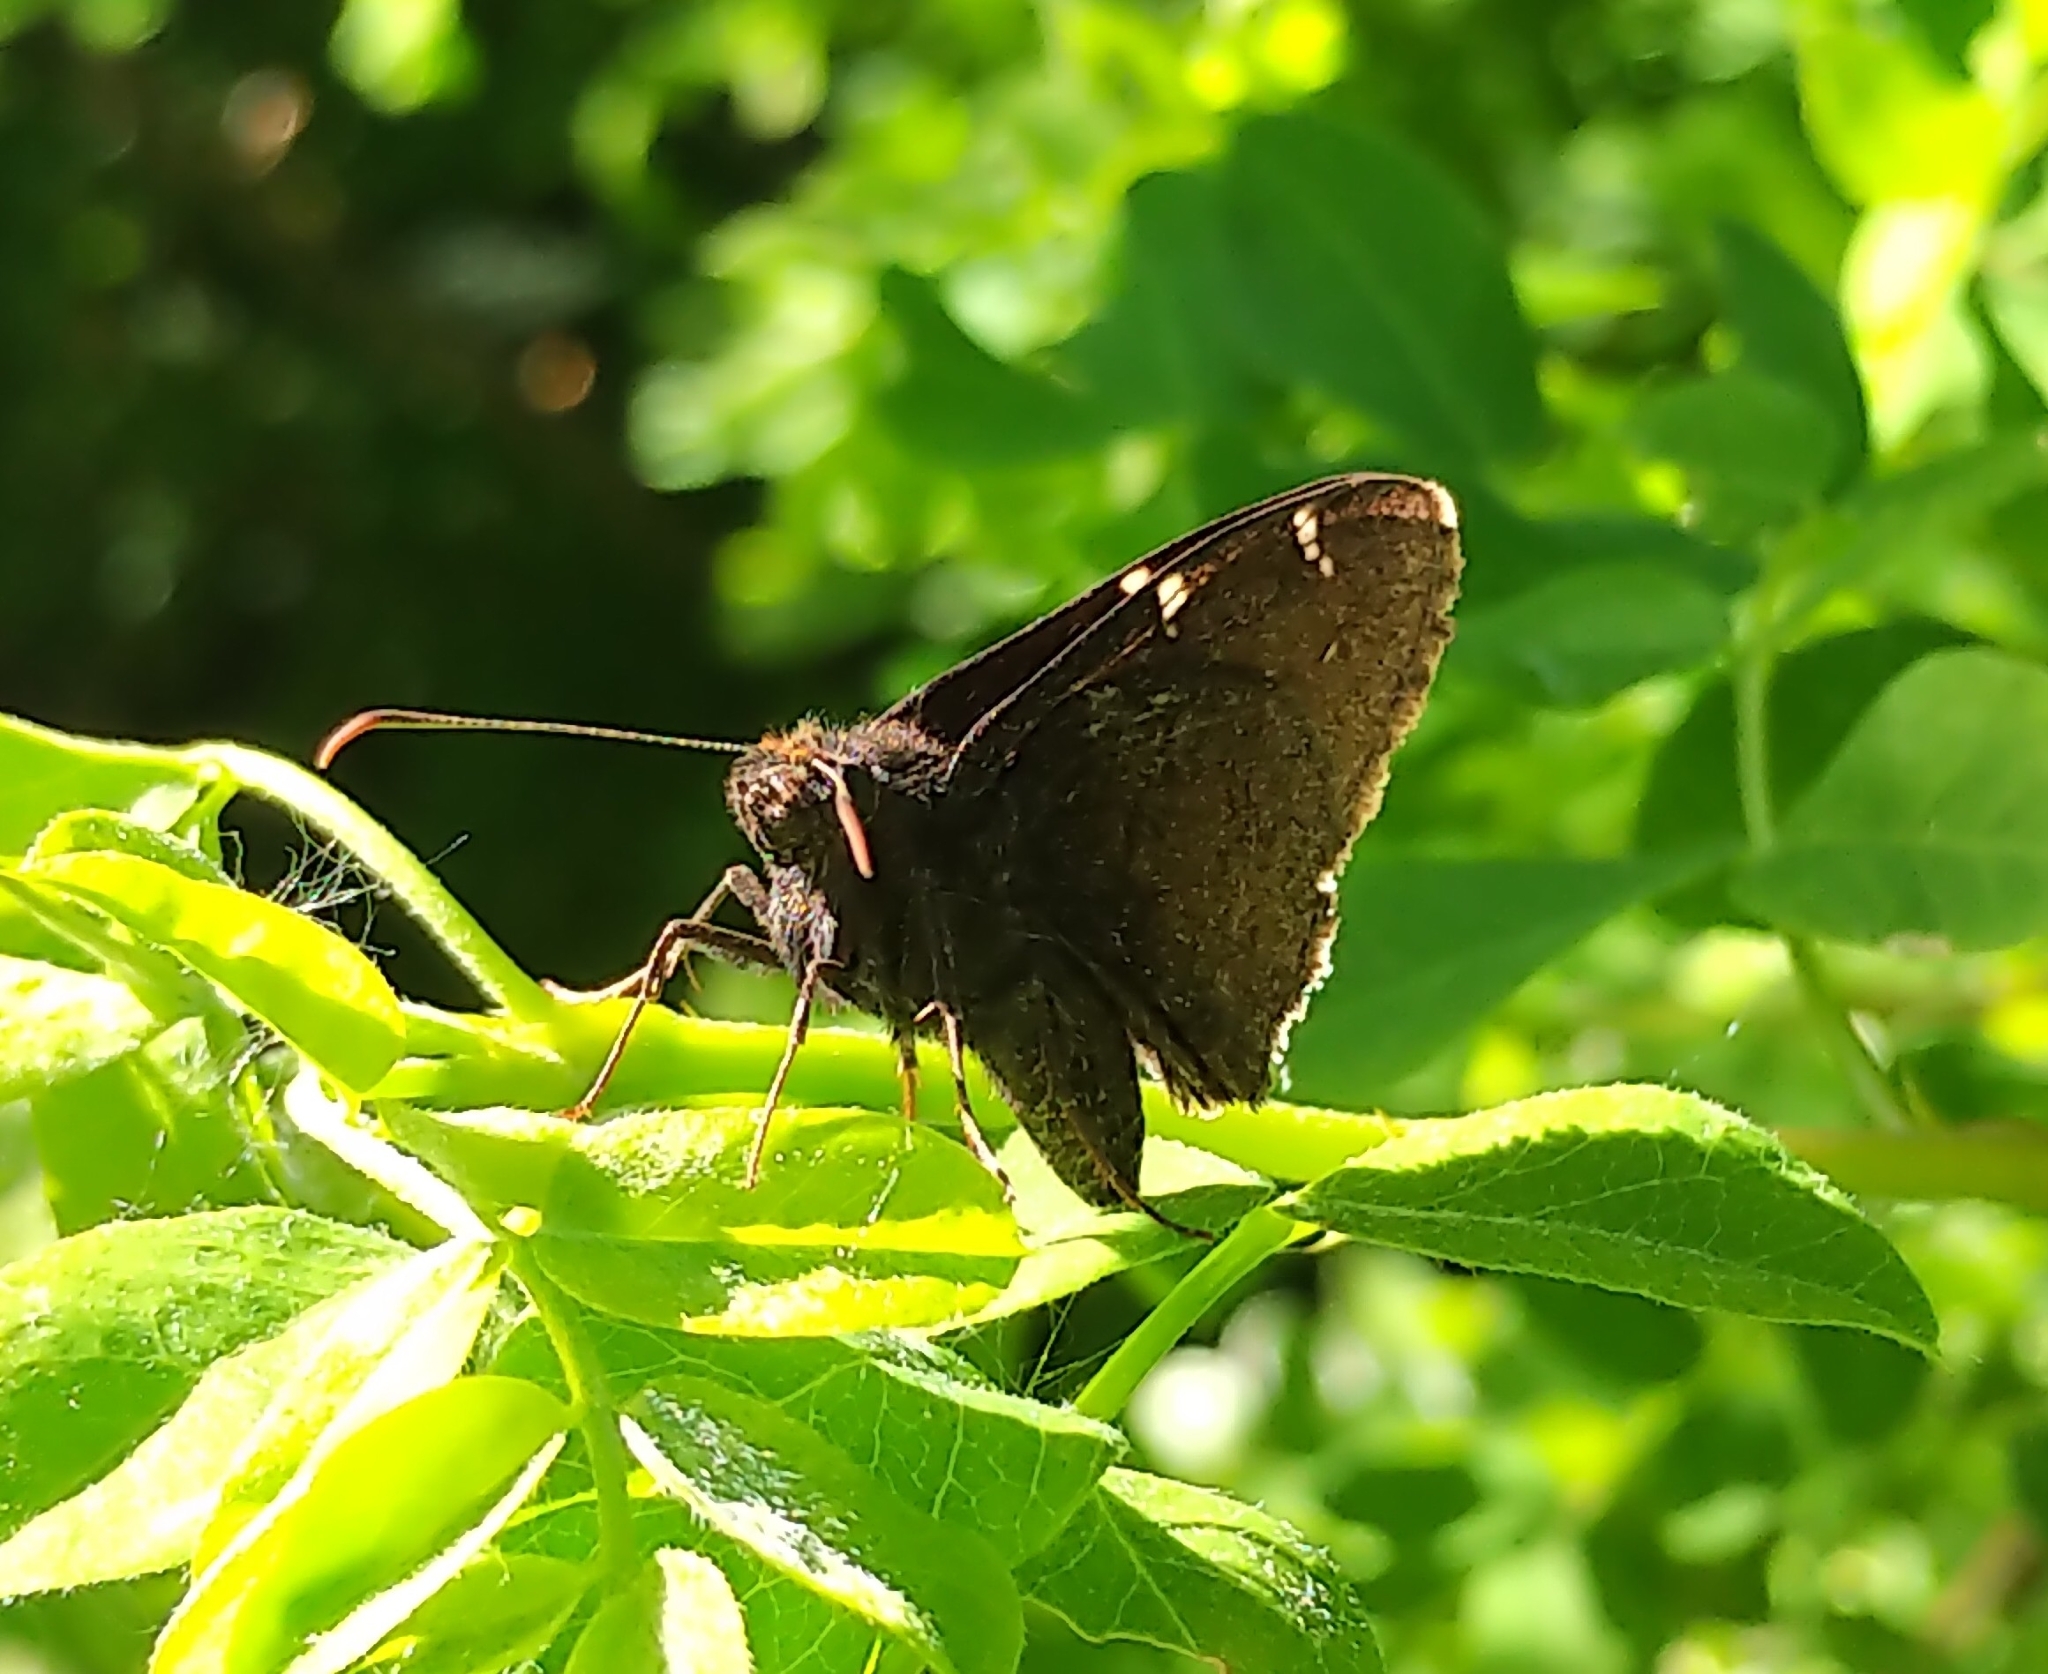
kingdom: Animalia
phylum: Arthropoda
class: Insecta
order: Lepidoptera
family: Hesperiidae
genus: Thorybes
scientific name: Thorybes pylades
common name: Northern cloudywing
